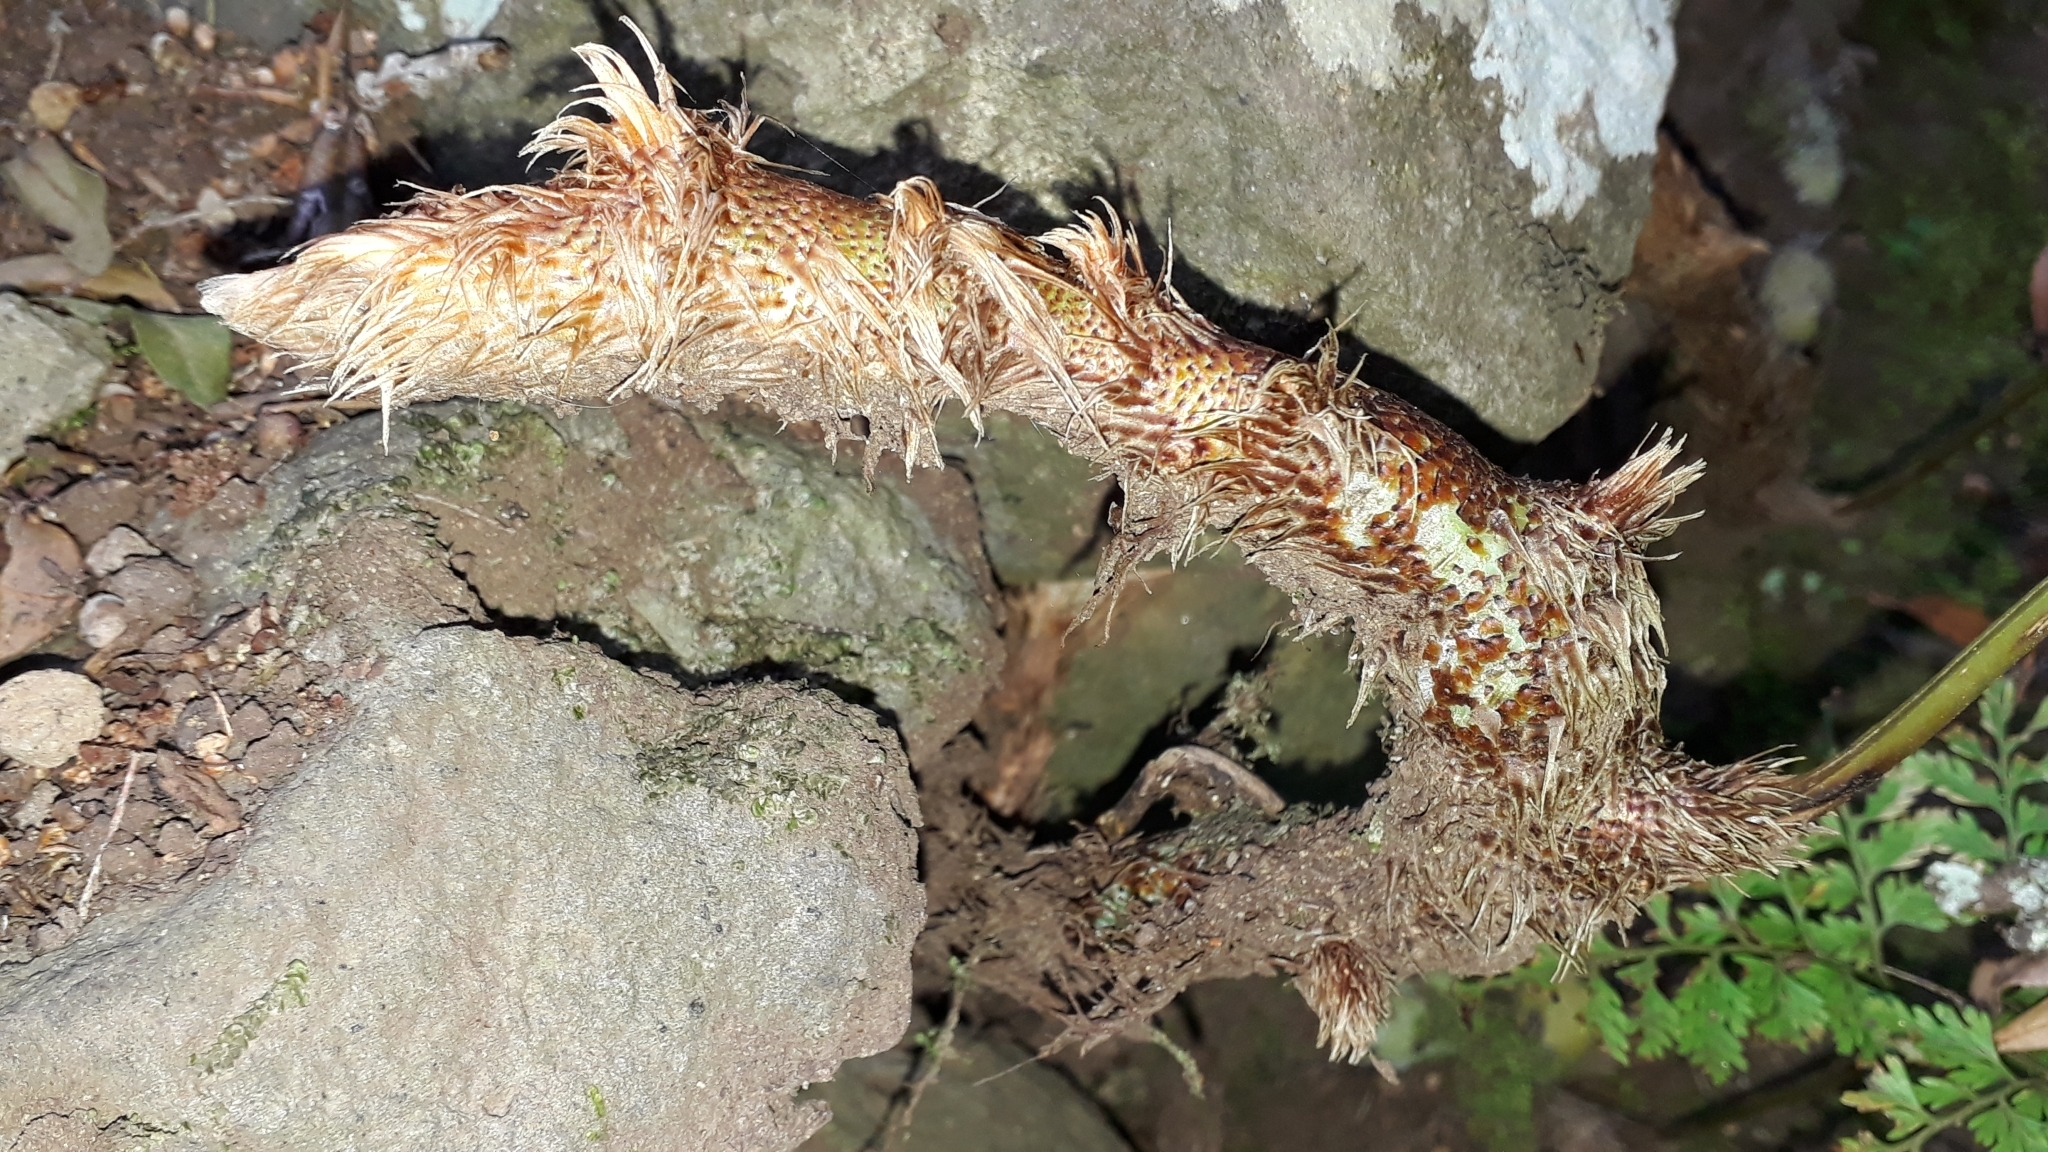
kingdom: Plantae
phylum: Tracheophyta
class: Polypodiopsida
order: Polypodiales
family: Davalliaceae
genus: Davallia
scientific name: Davallia canariensis
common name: Hare's-foot fern
